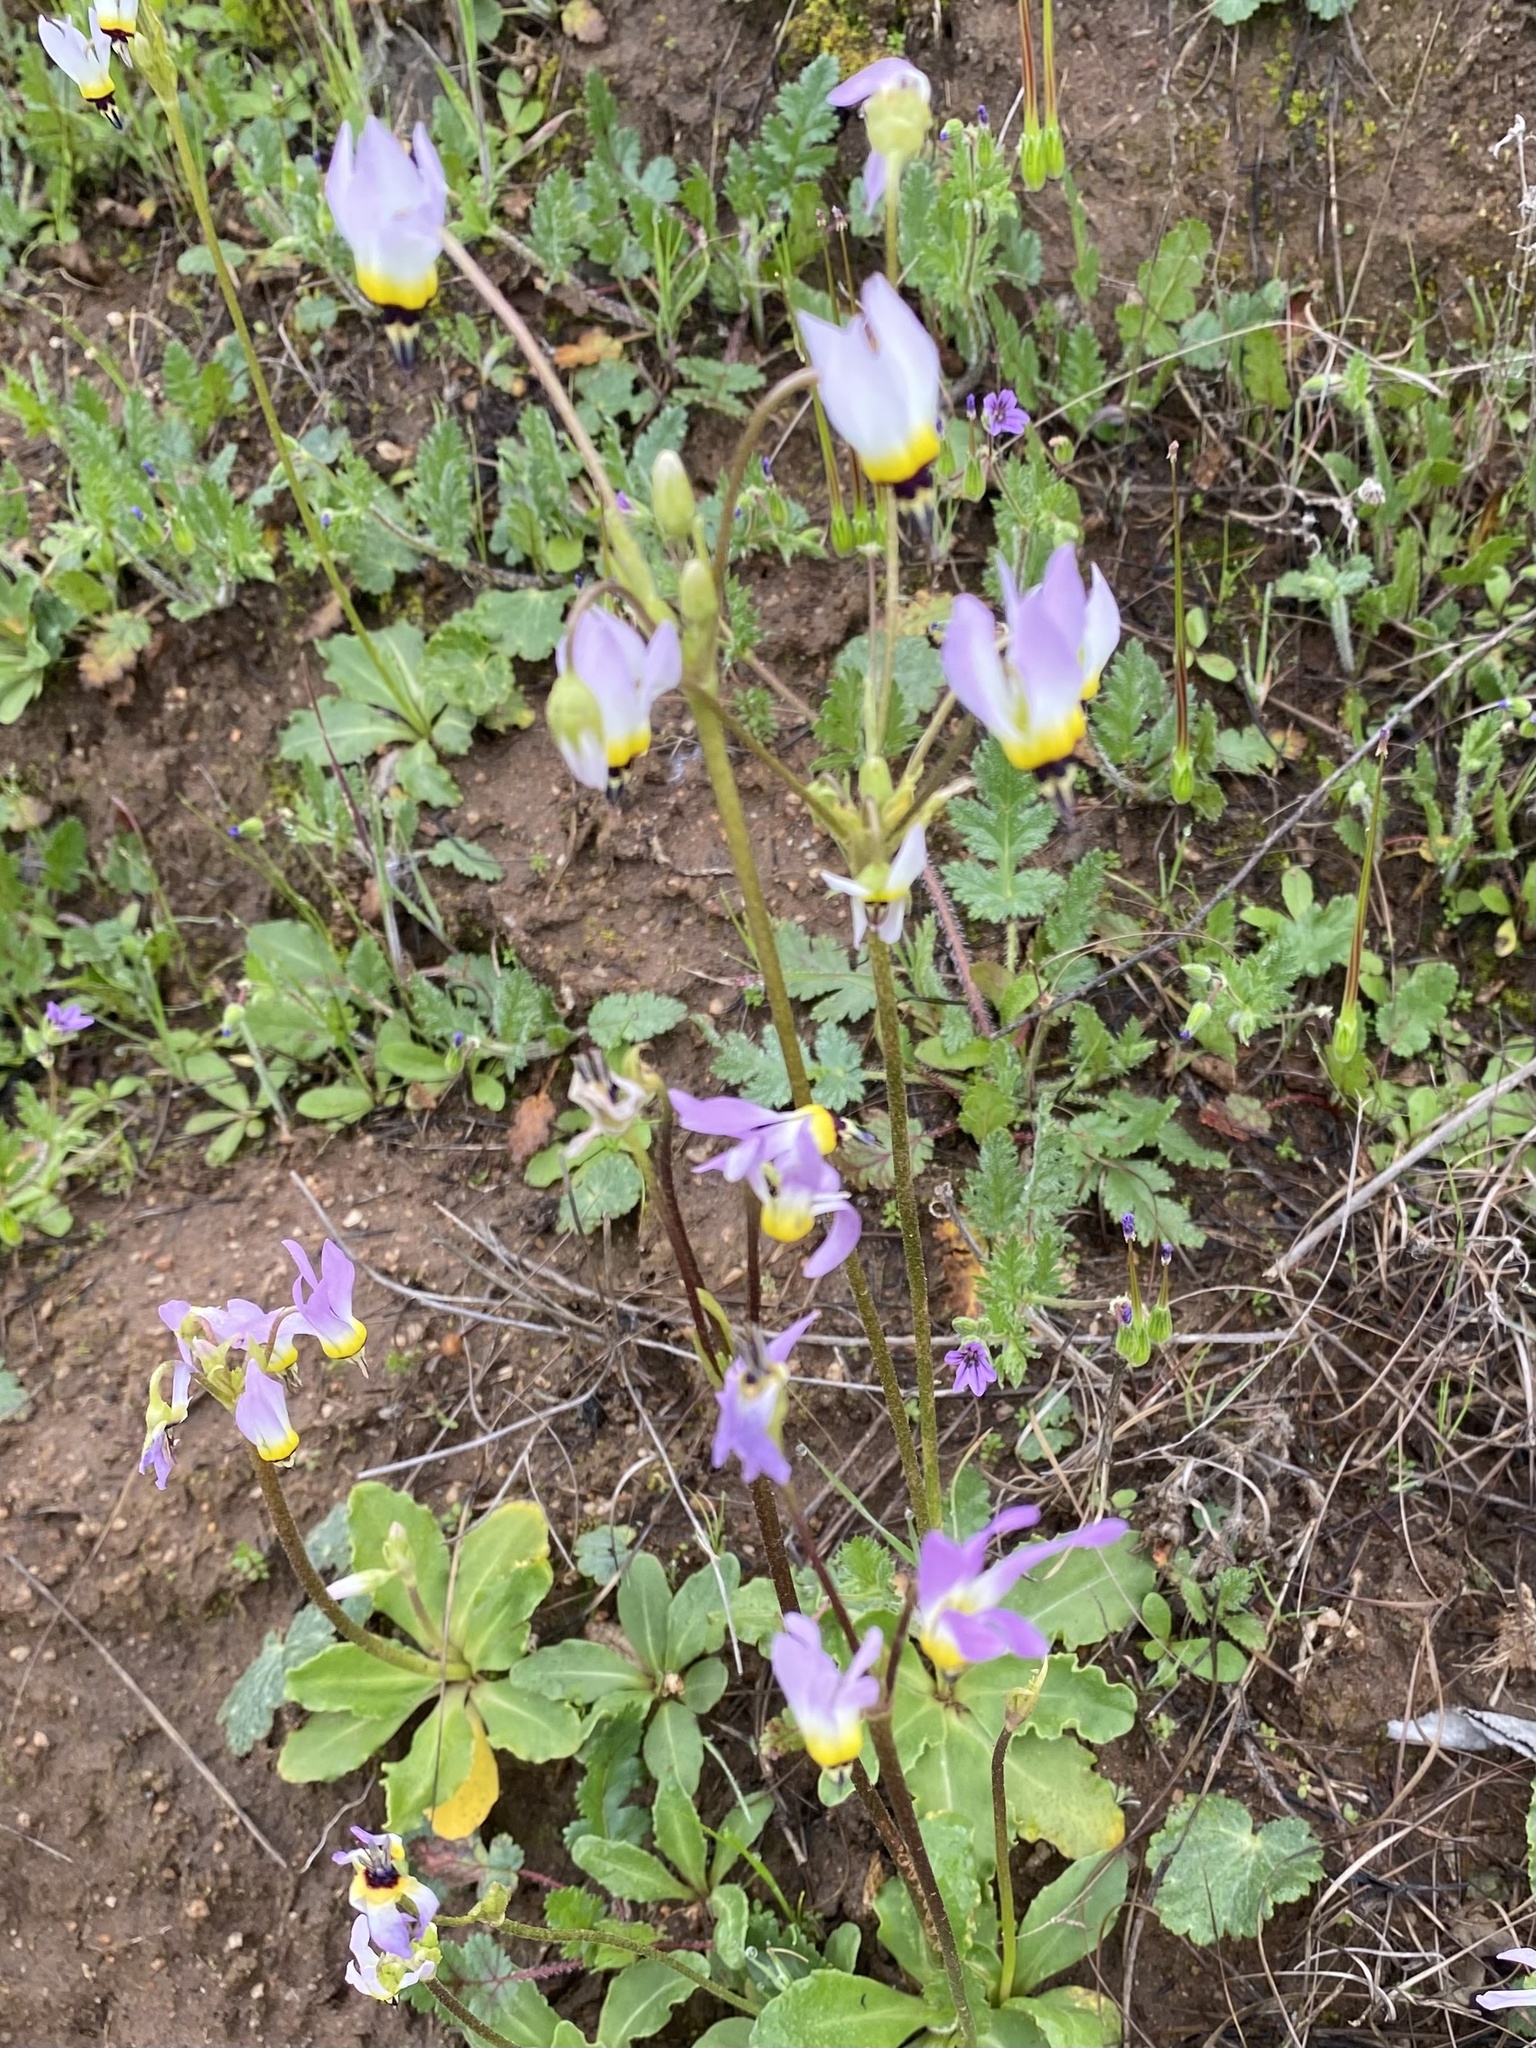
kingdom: Plantae
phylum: Tracheophyta
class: Magnoliopsida
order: Ericales
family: Primulaceae
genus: Dodecatheon
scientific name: Dodecatheon clevelandii
